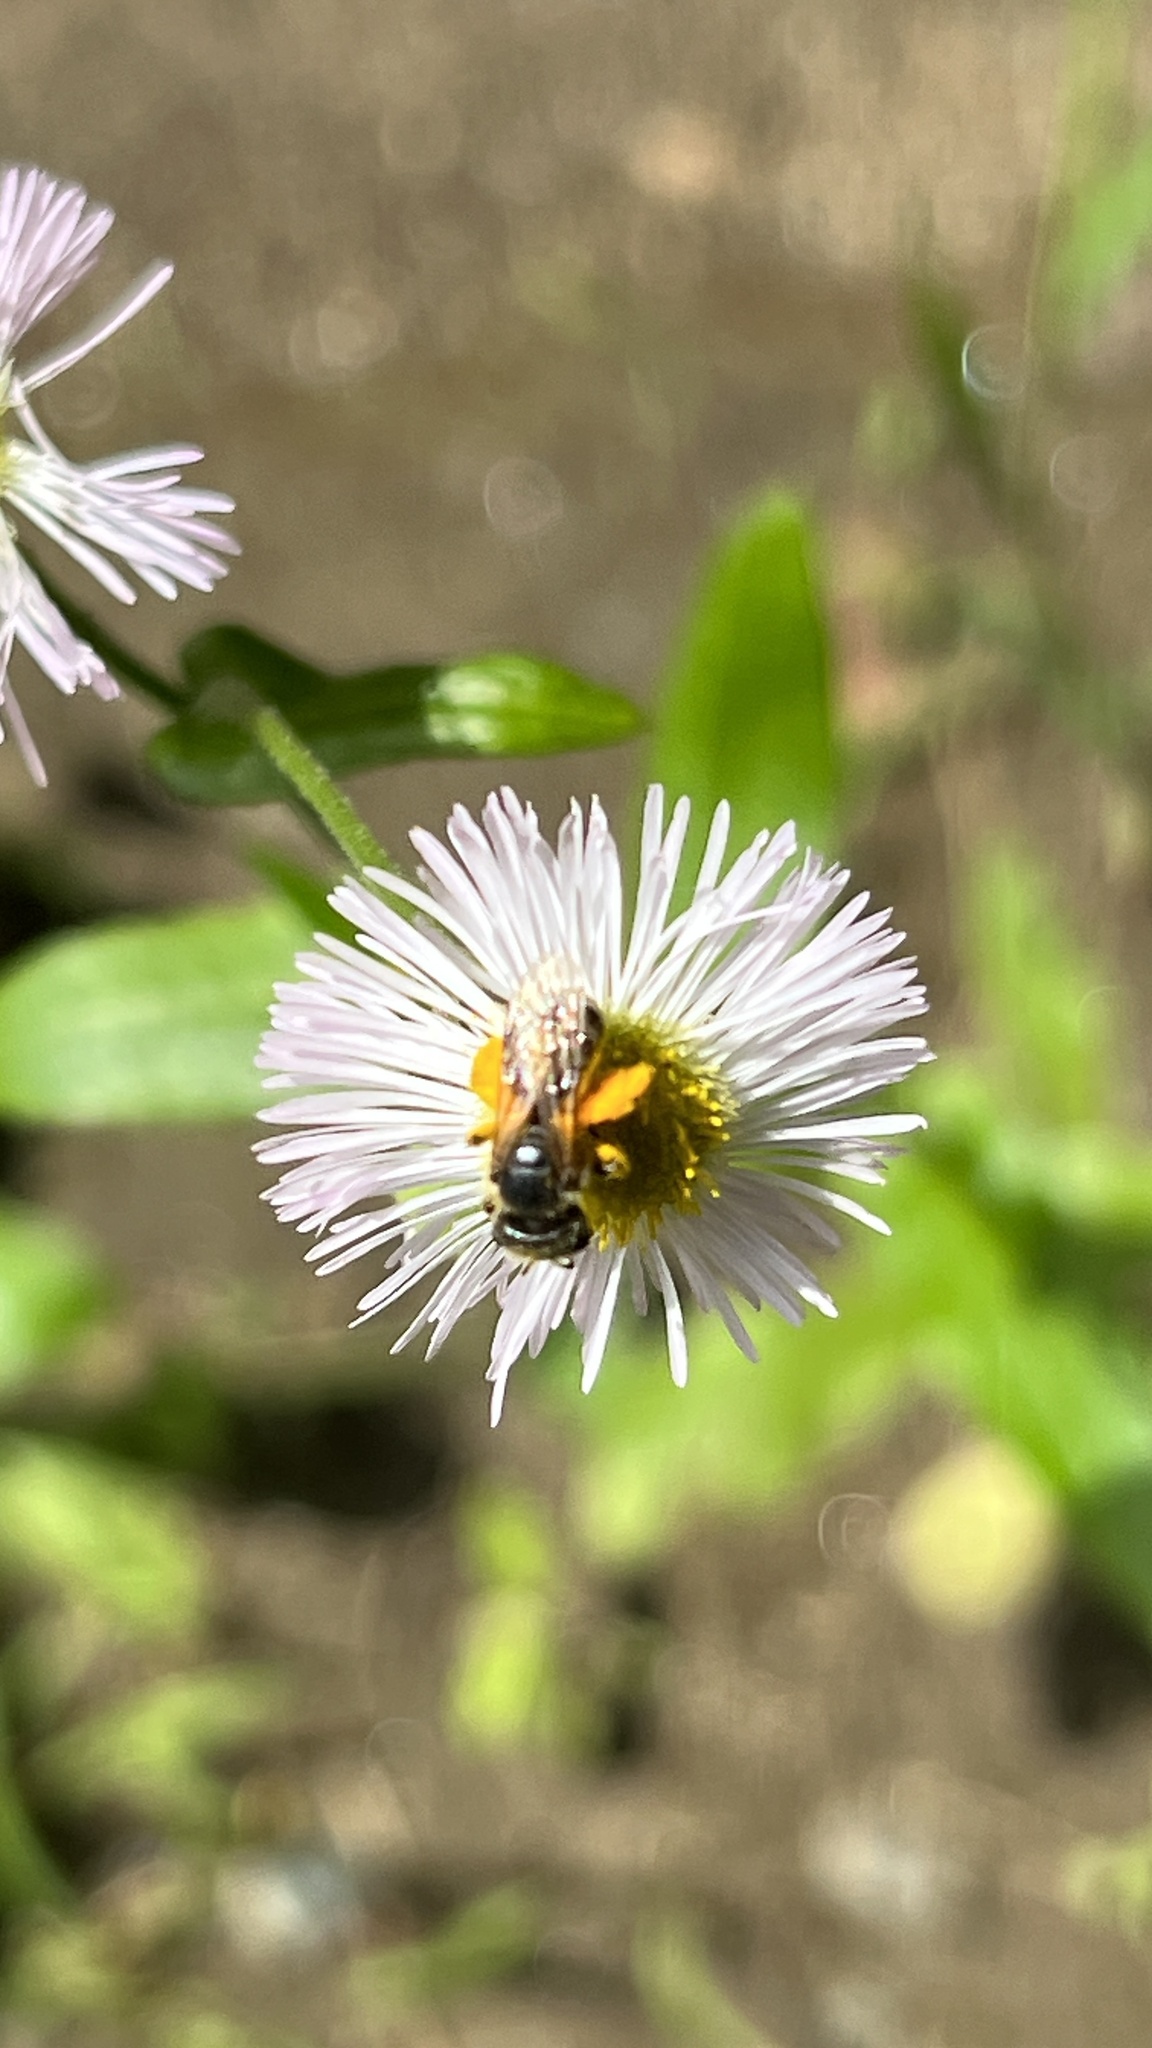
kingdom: Animalia
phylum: Arthropoda
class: Insecta
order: Hymenoptera
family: Halictidae
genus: Halictus
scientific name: Halictus ligatus
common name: Ligated furrow bee
